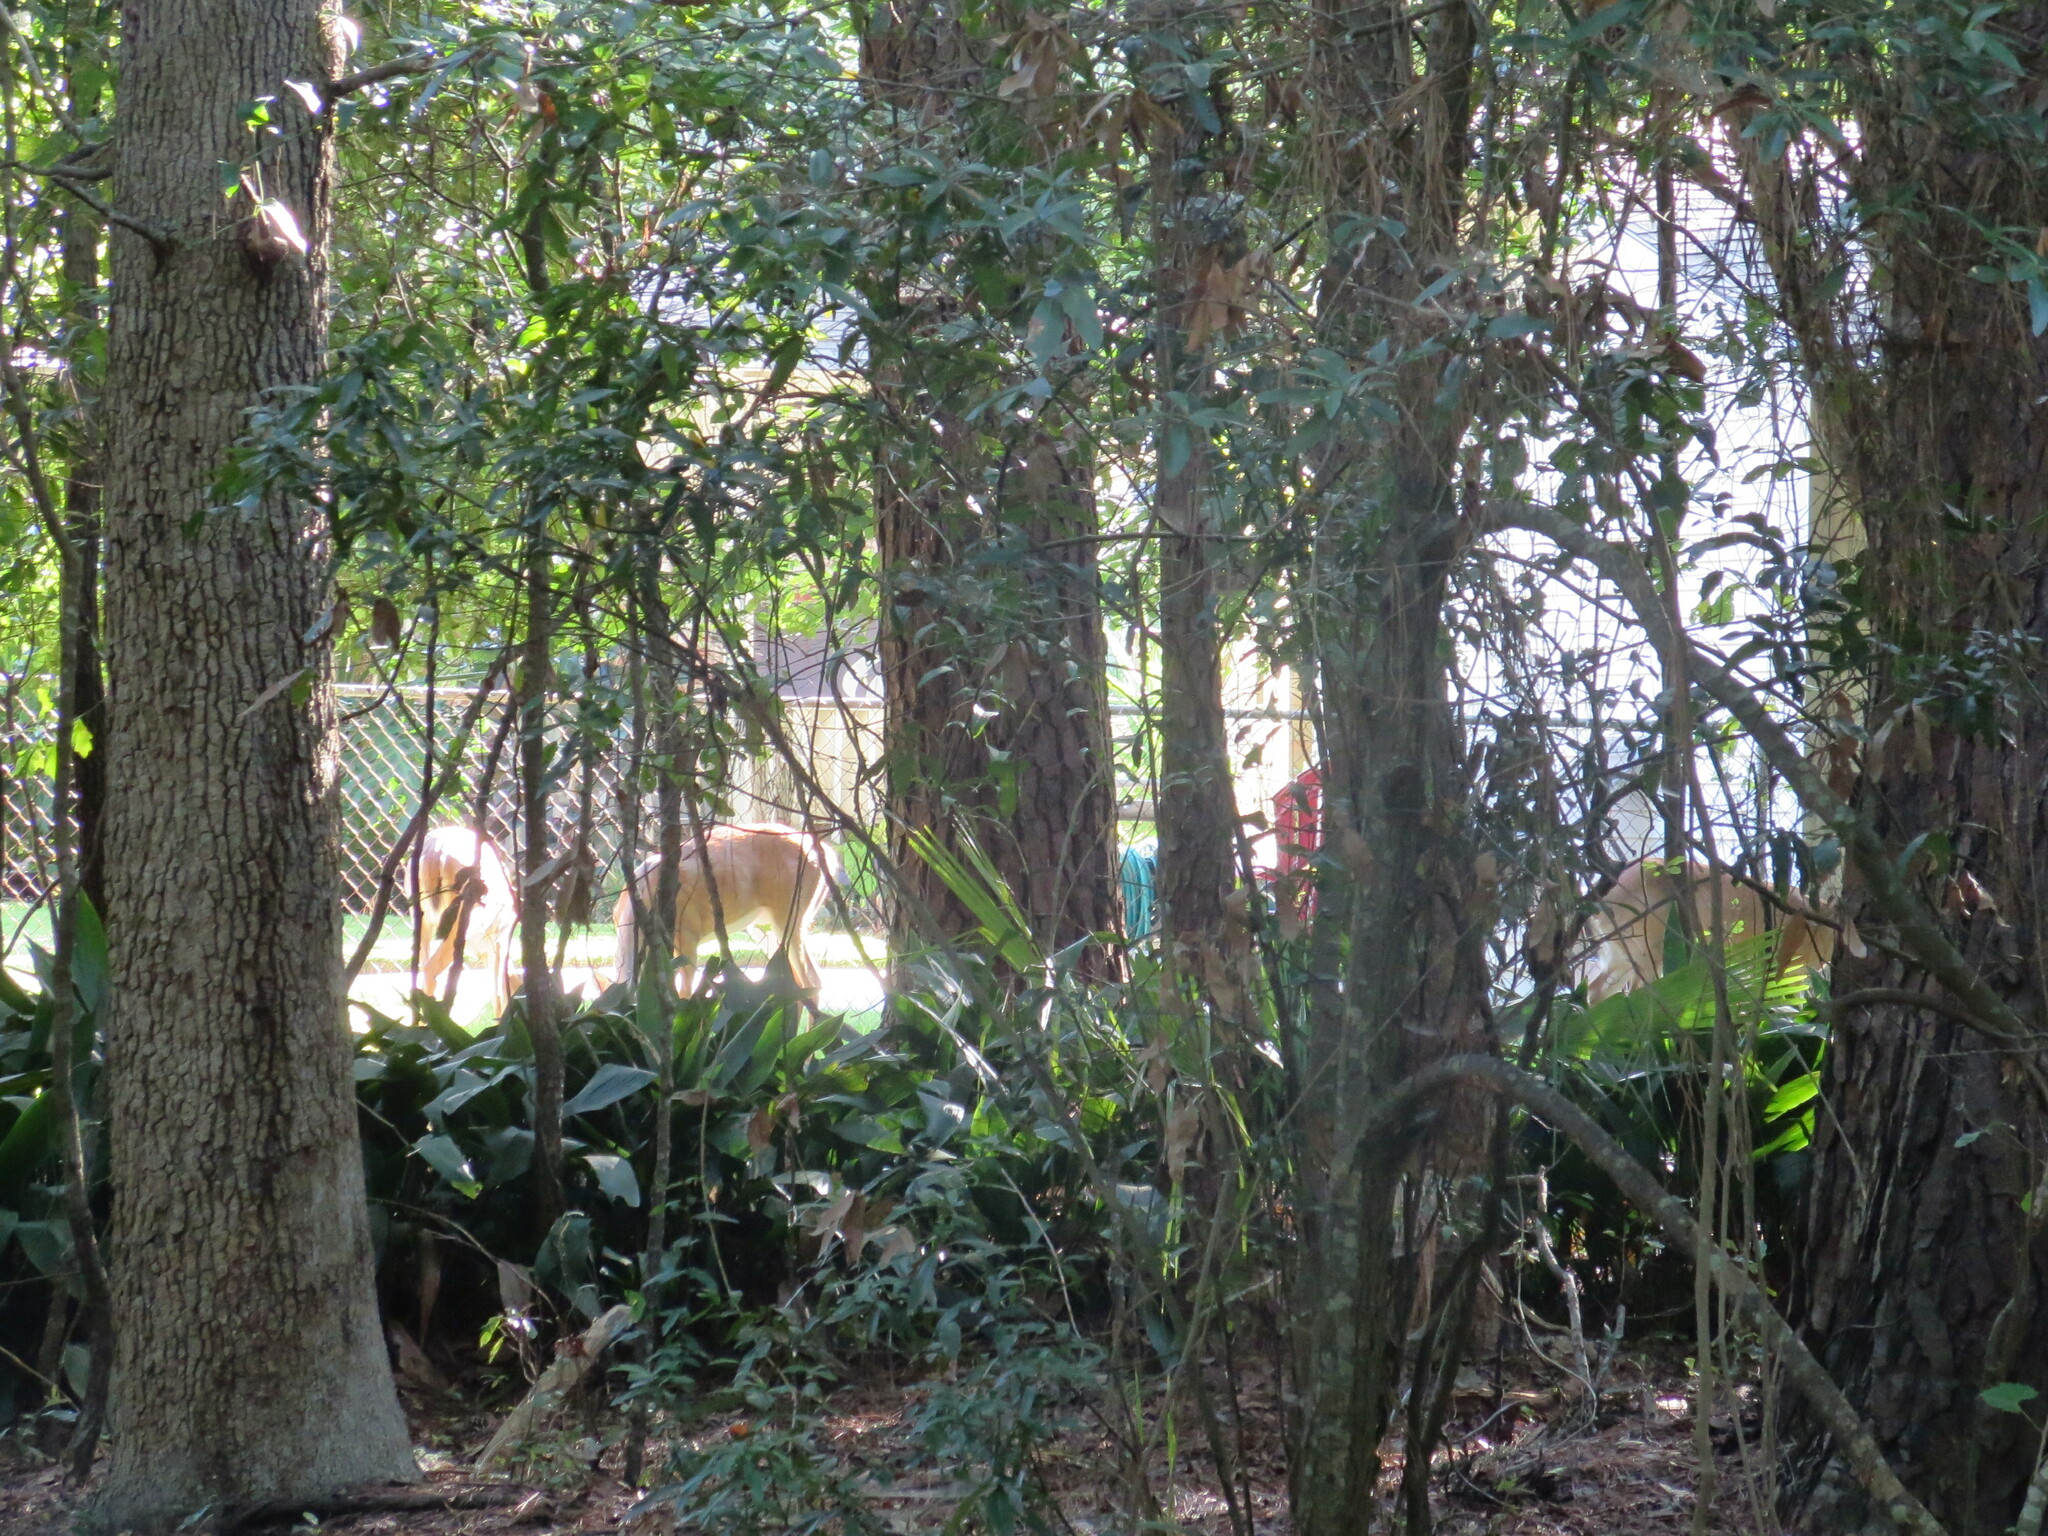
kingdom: Animalia
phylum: Chordata
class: Mammalia
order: Artiodactyla
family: Cervidae
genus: Odocoileus
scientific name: Odocoileus virginianus
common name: White-tailed deer
